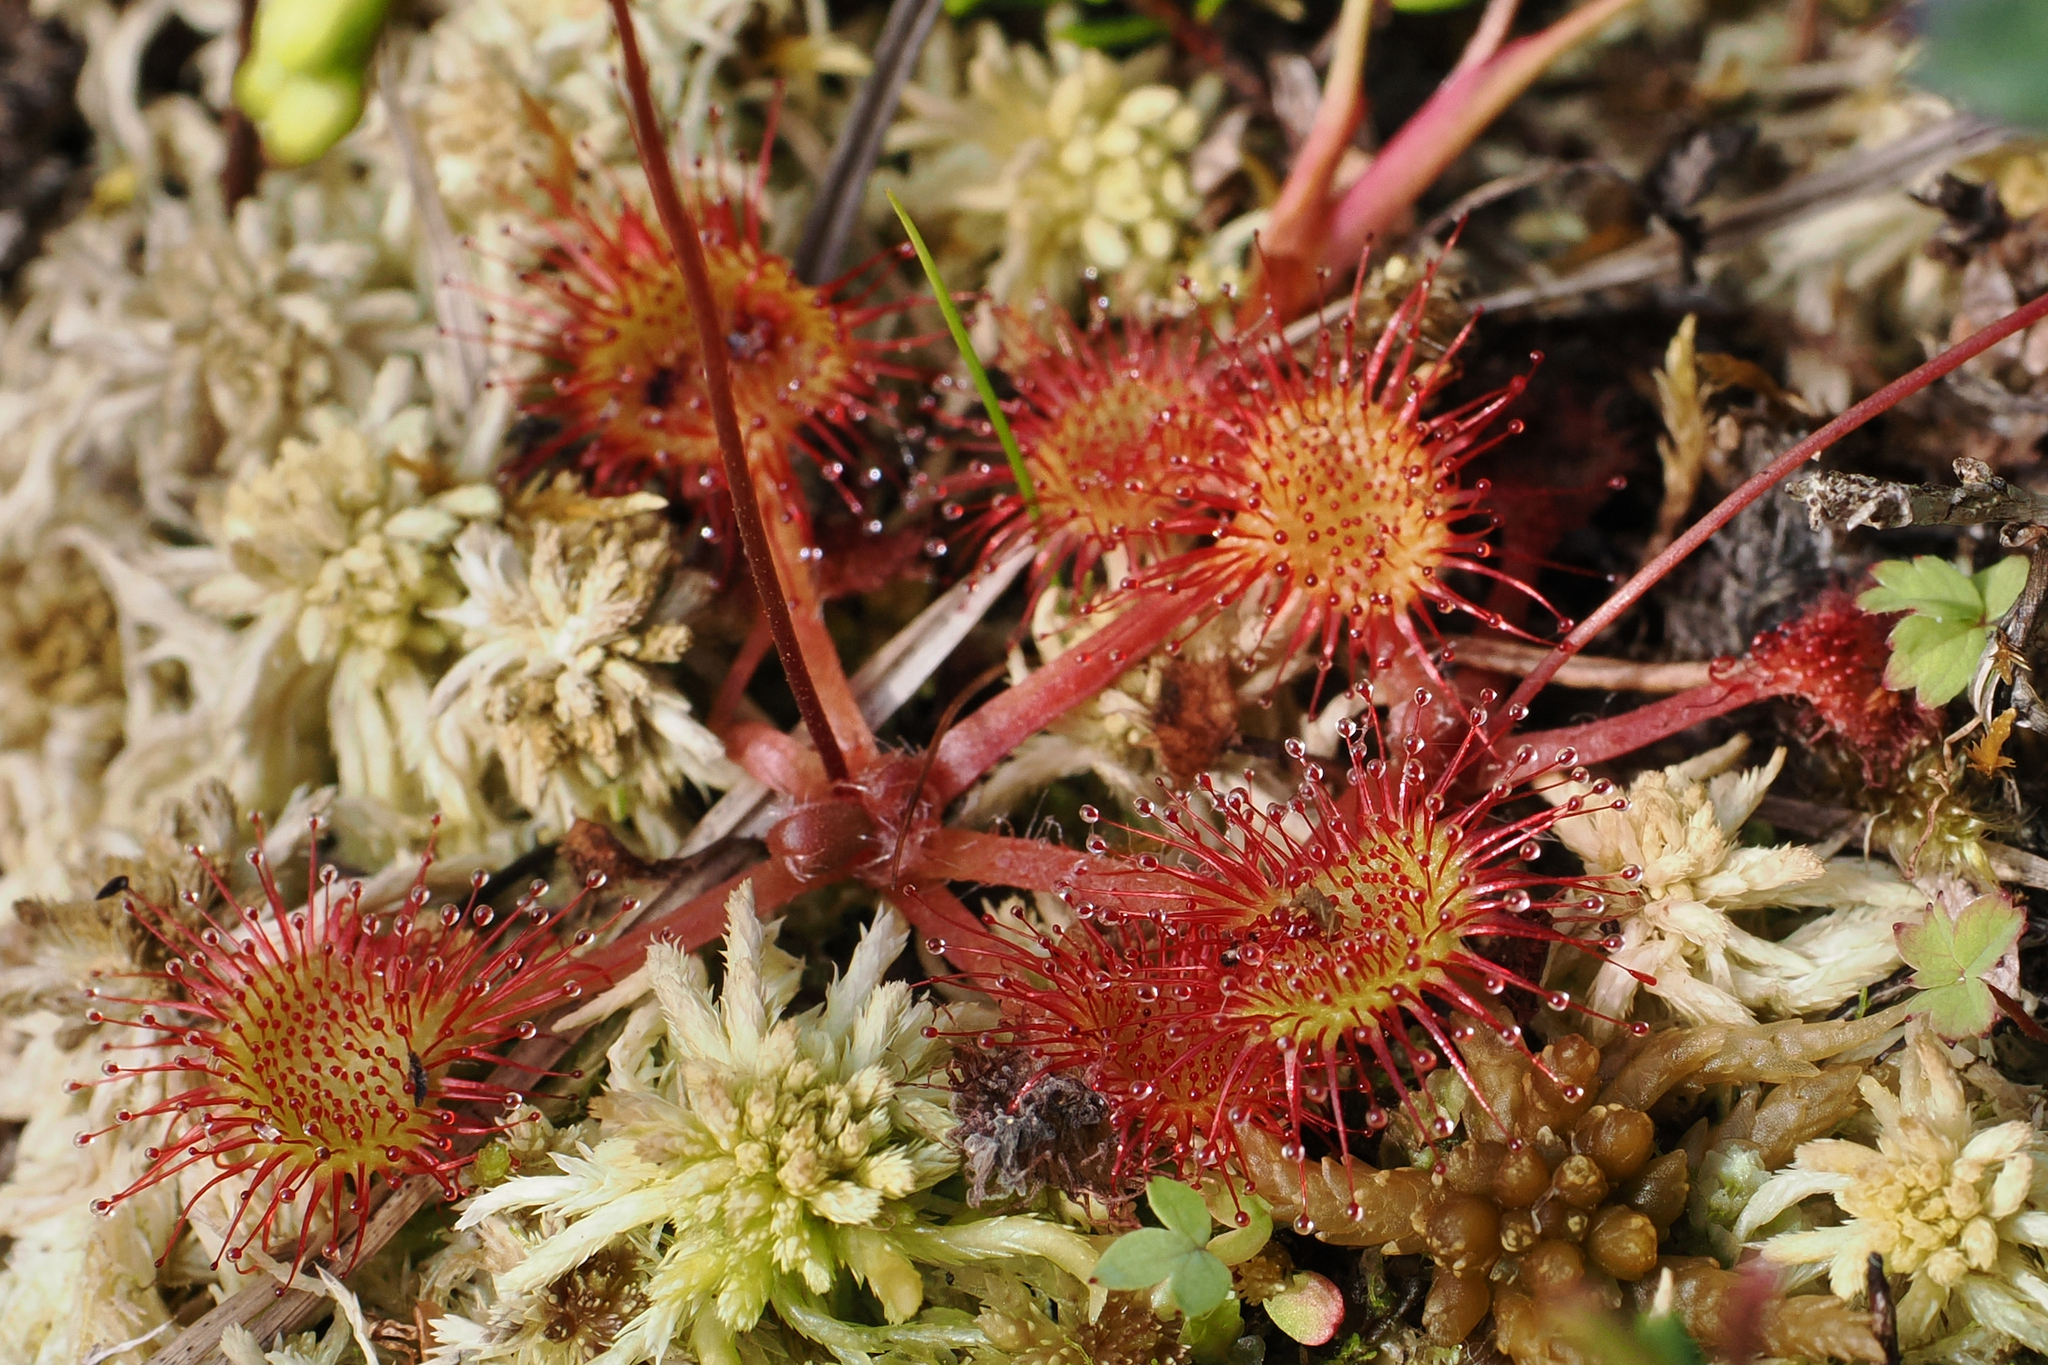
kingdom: Plantae
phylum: Tracheophyta
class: Magnoliopsida
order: Caryophyllales
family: Droseraceae
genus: Drosera
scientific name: Drosera rotundifolia
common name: Round-leaved sundew
